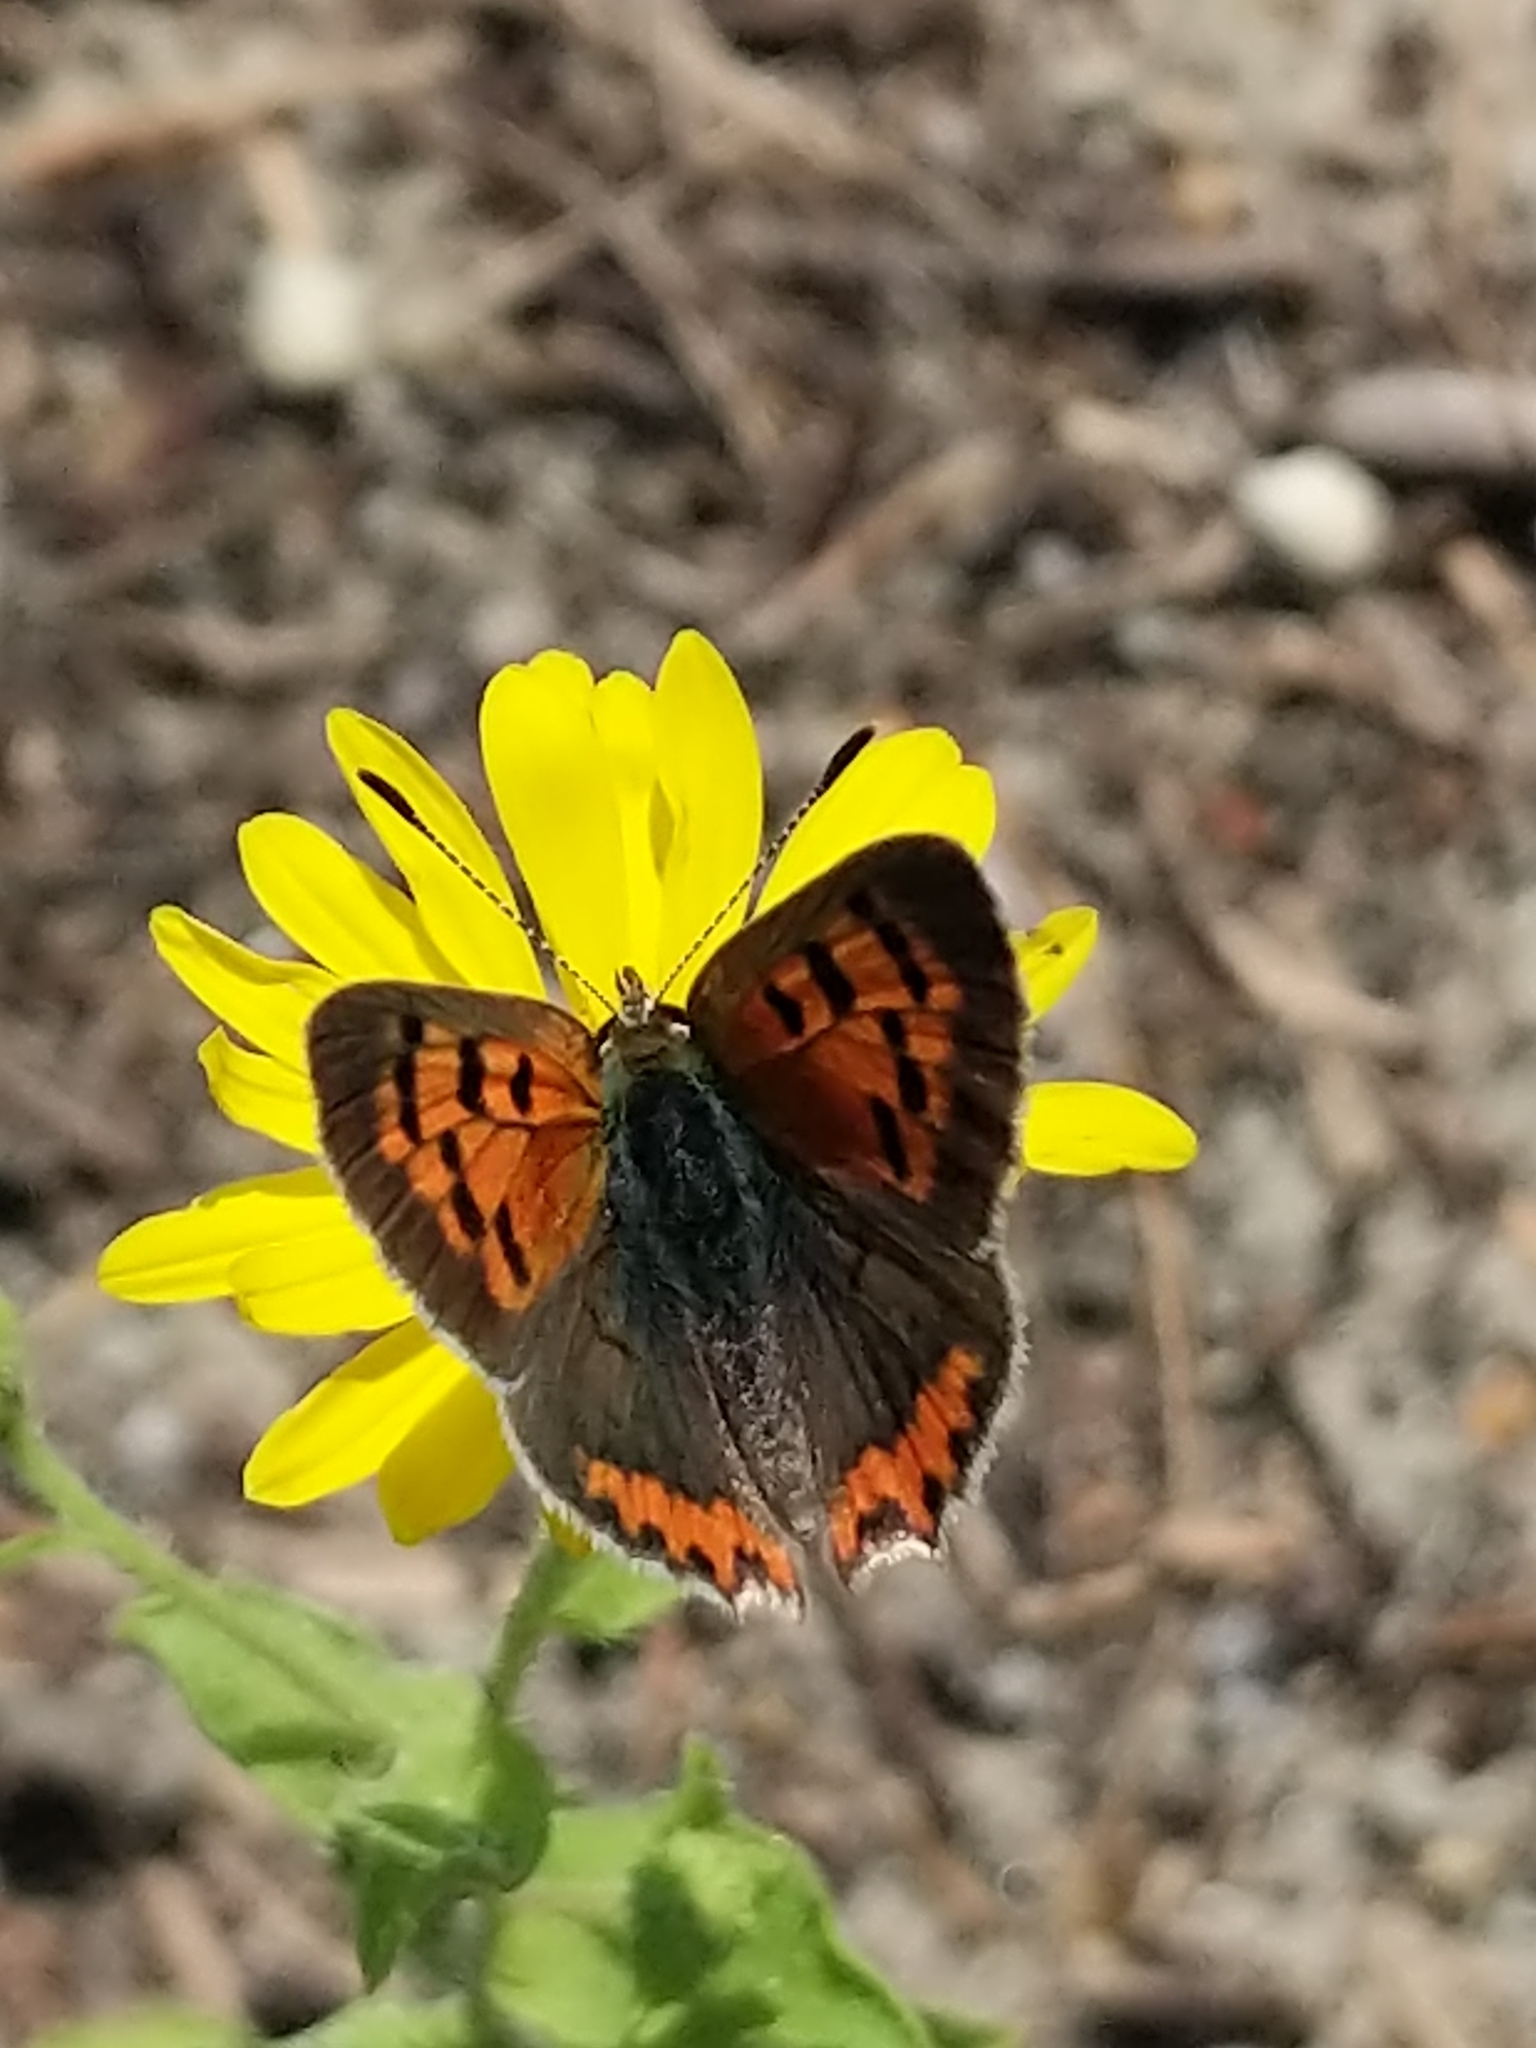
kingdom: Animalia
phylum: Arthropoda
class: Insecta
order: Lepidoptera
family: Lycaenidae
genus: Lycaena
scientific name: Lycaena hypophlaeas
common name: American copper
